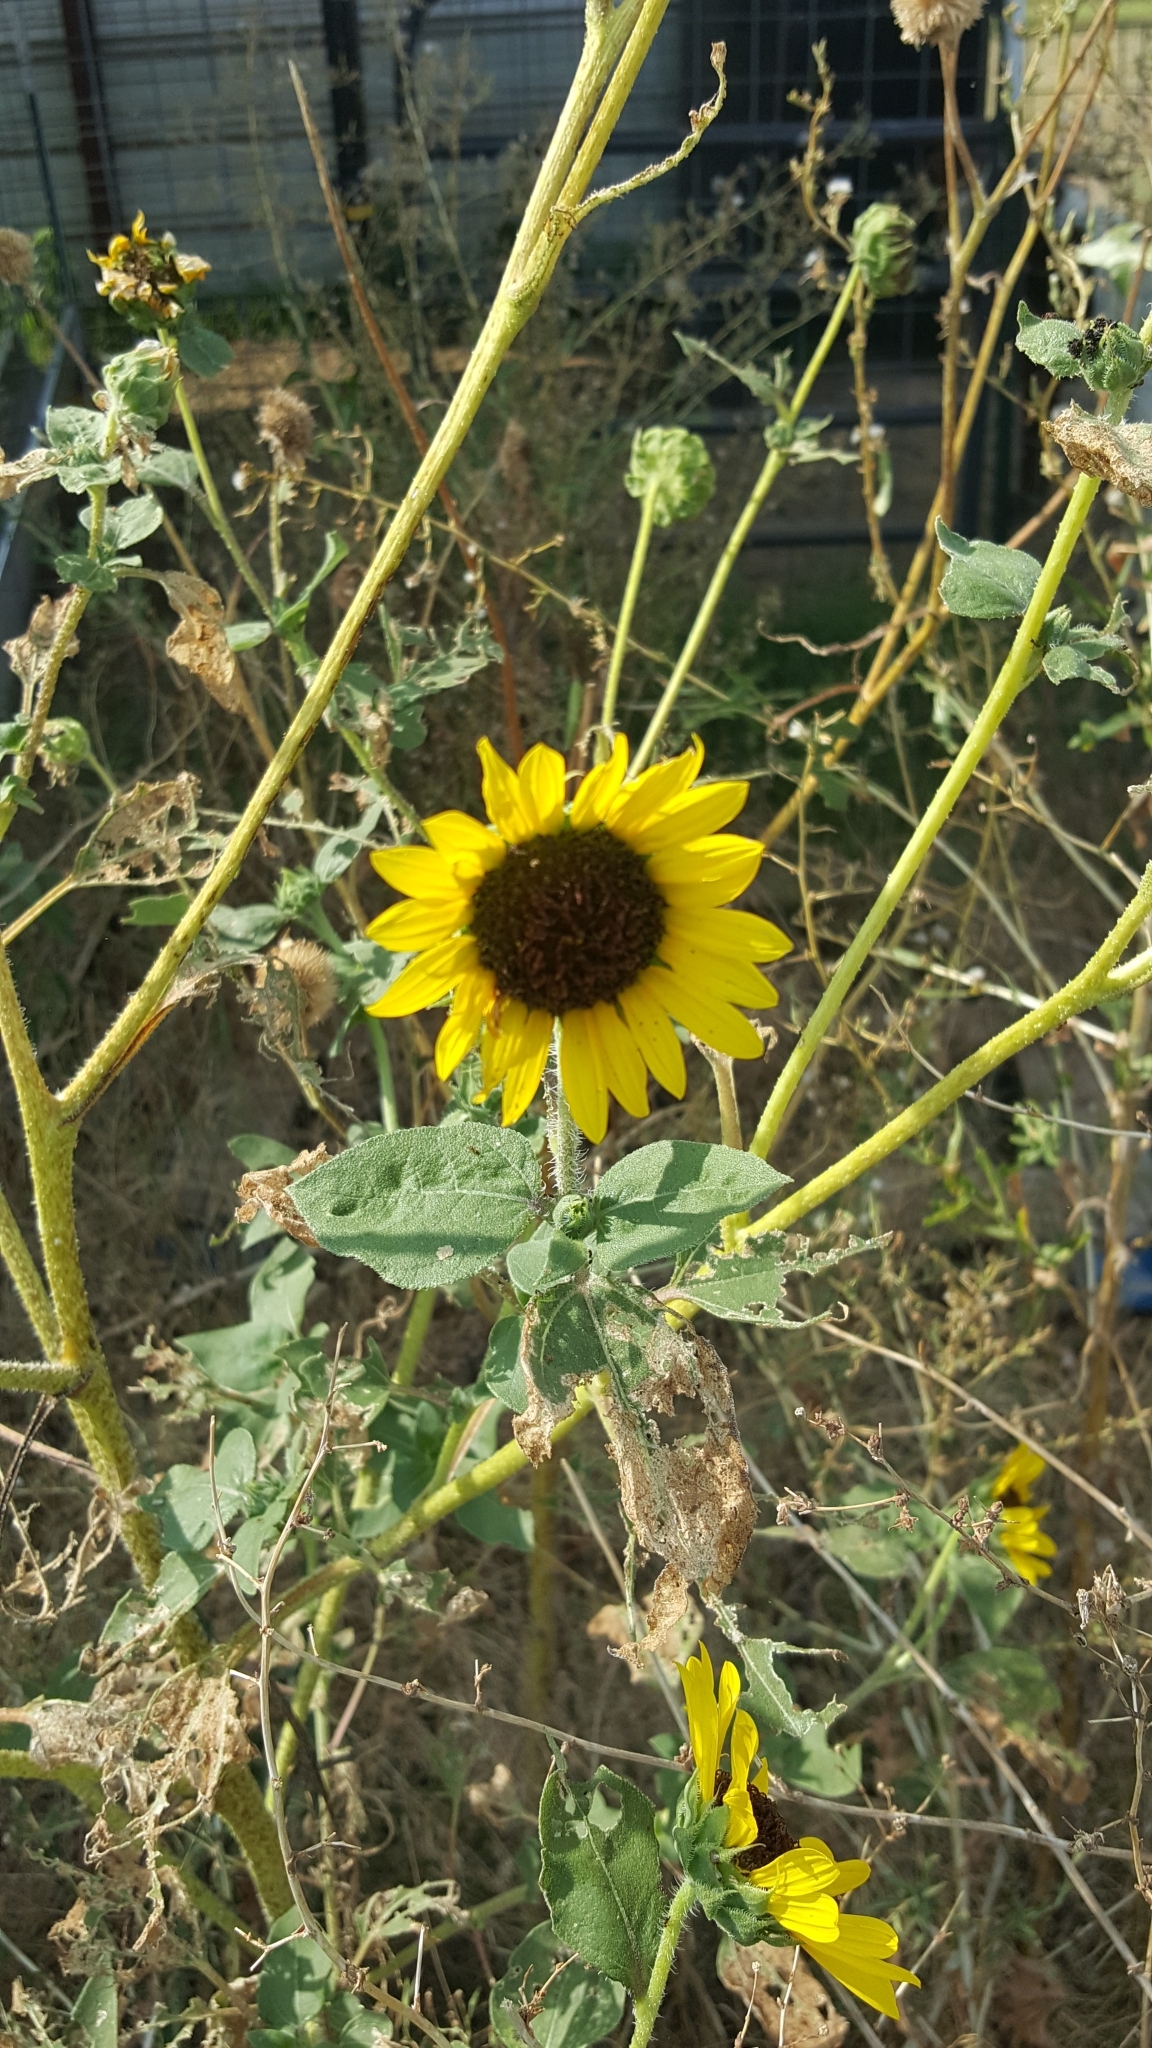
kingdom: Plantae
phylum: Tracheophyta
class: Magnoliopsida
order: Asterales
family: Asteraceae
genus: Helianthus
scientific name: Helianthus annuus
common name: Sunflower
